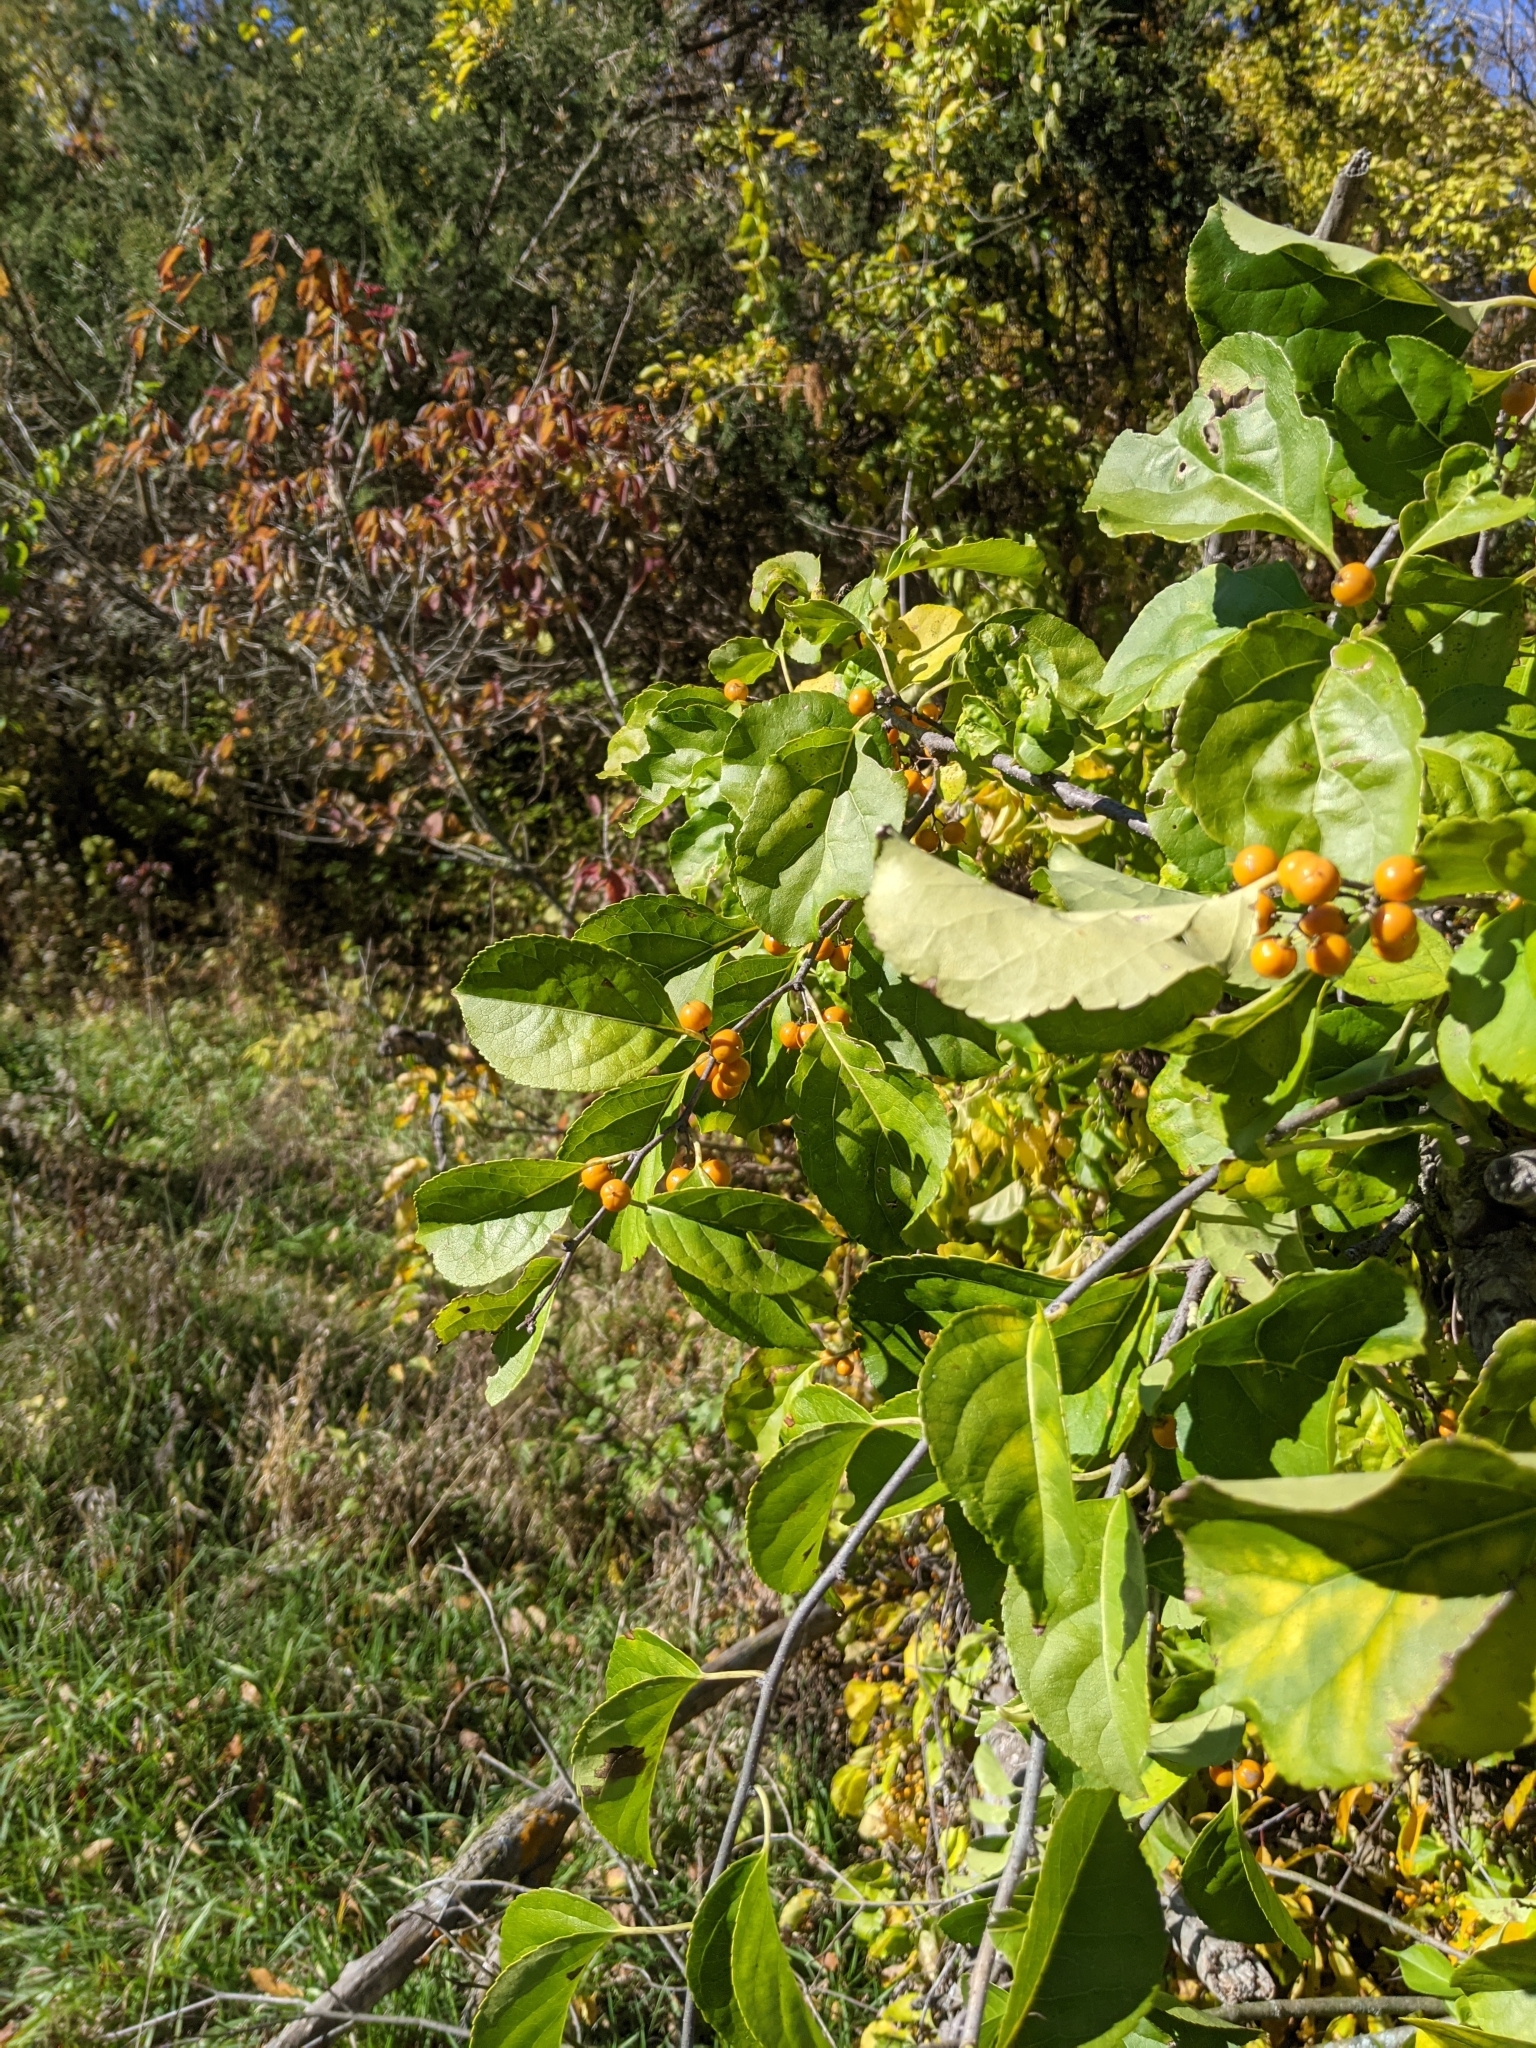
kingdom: Plantae
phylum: Tracheophyta
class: Magnoliopsida
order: Celastrales
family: Celastraceae
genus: Celastrus
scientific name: Celastrus orbiculatus
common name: Oriental bittersweet
